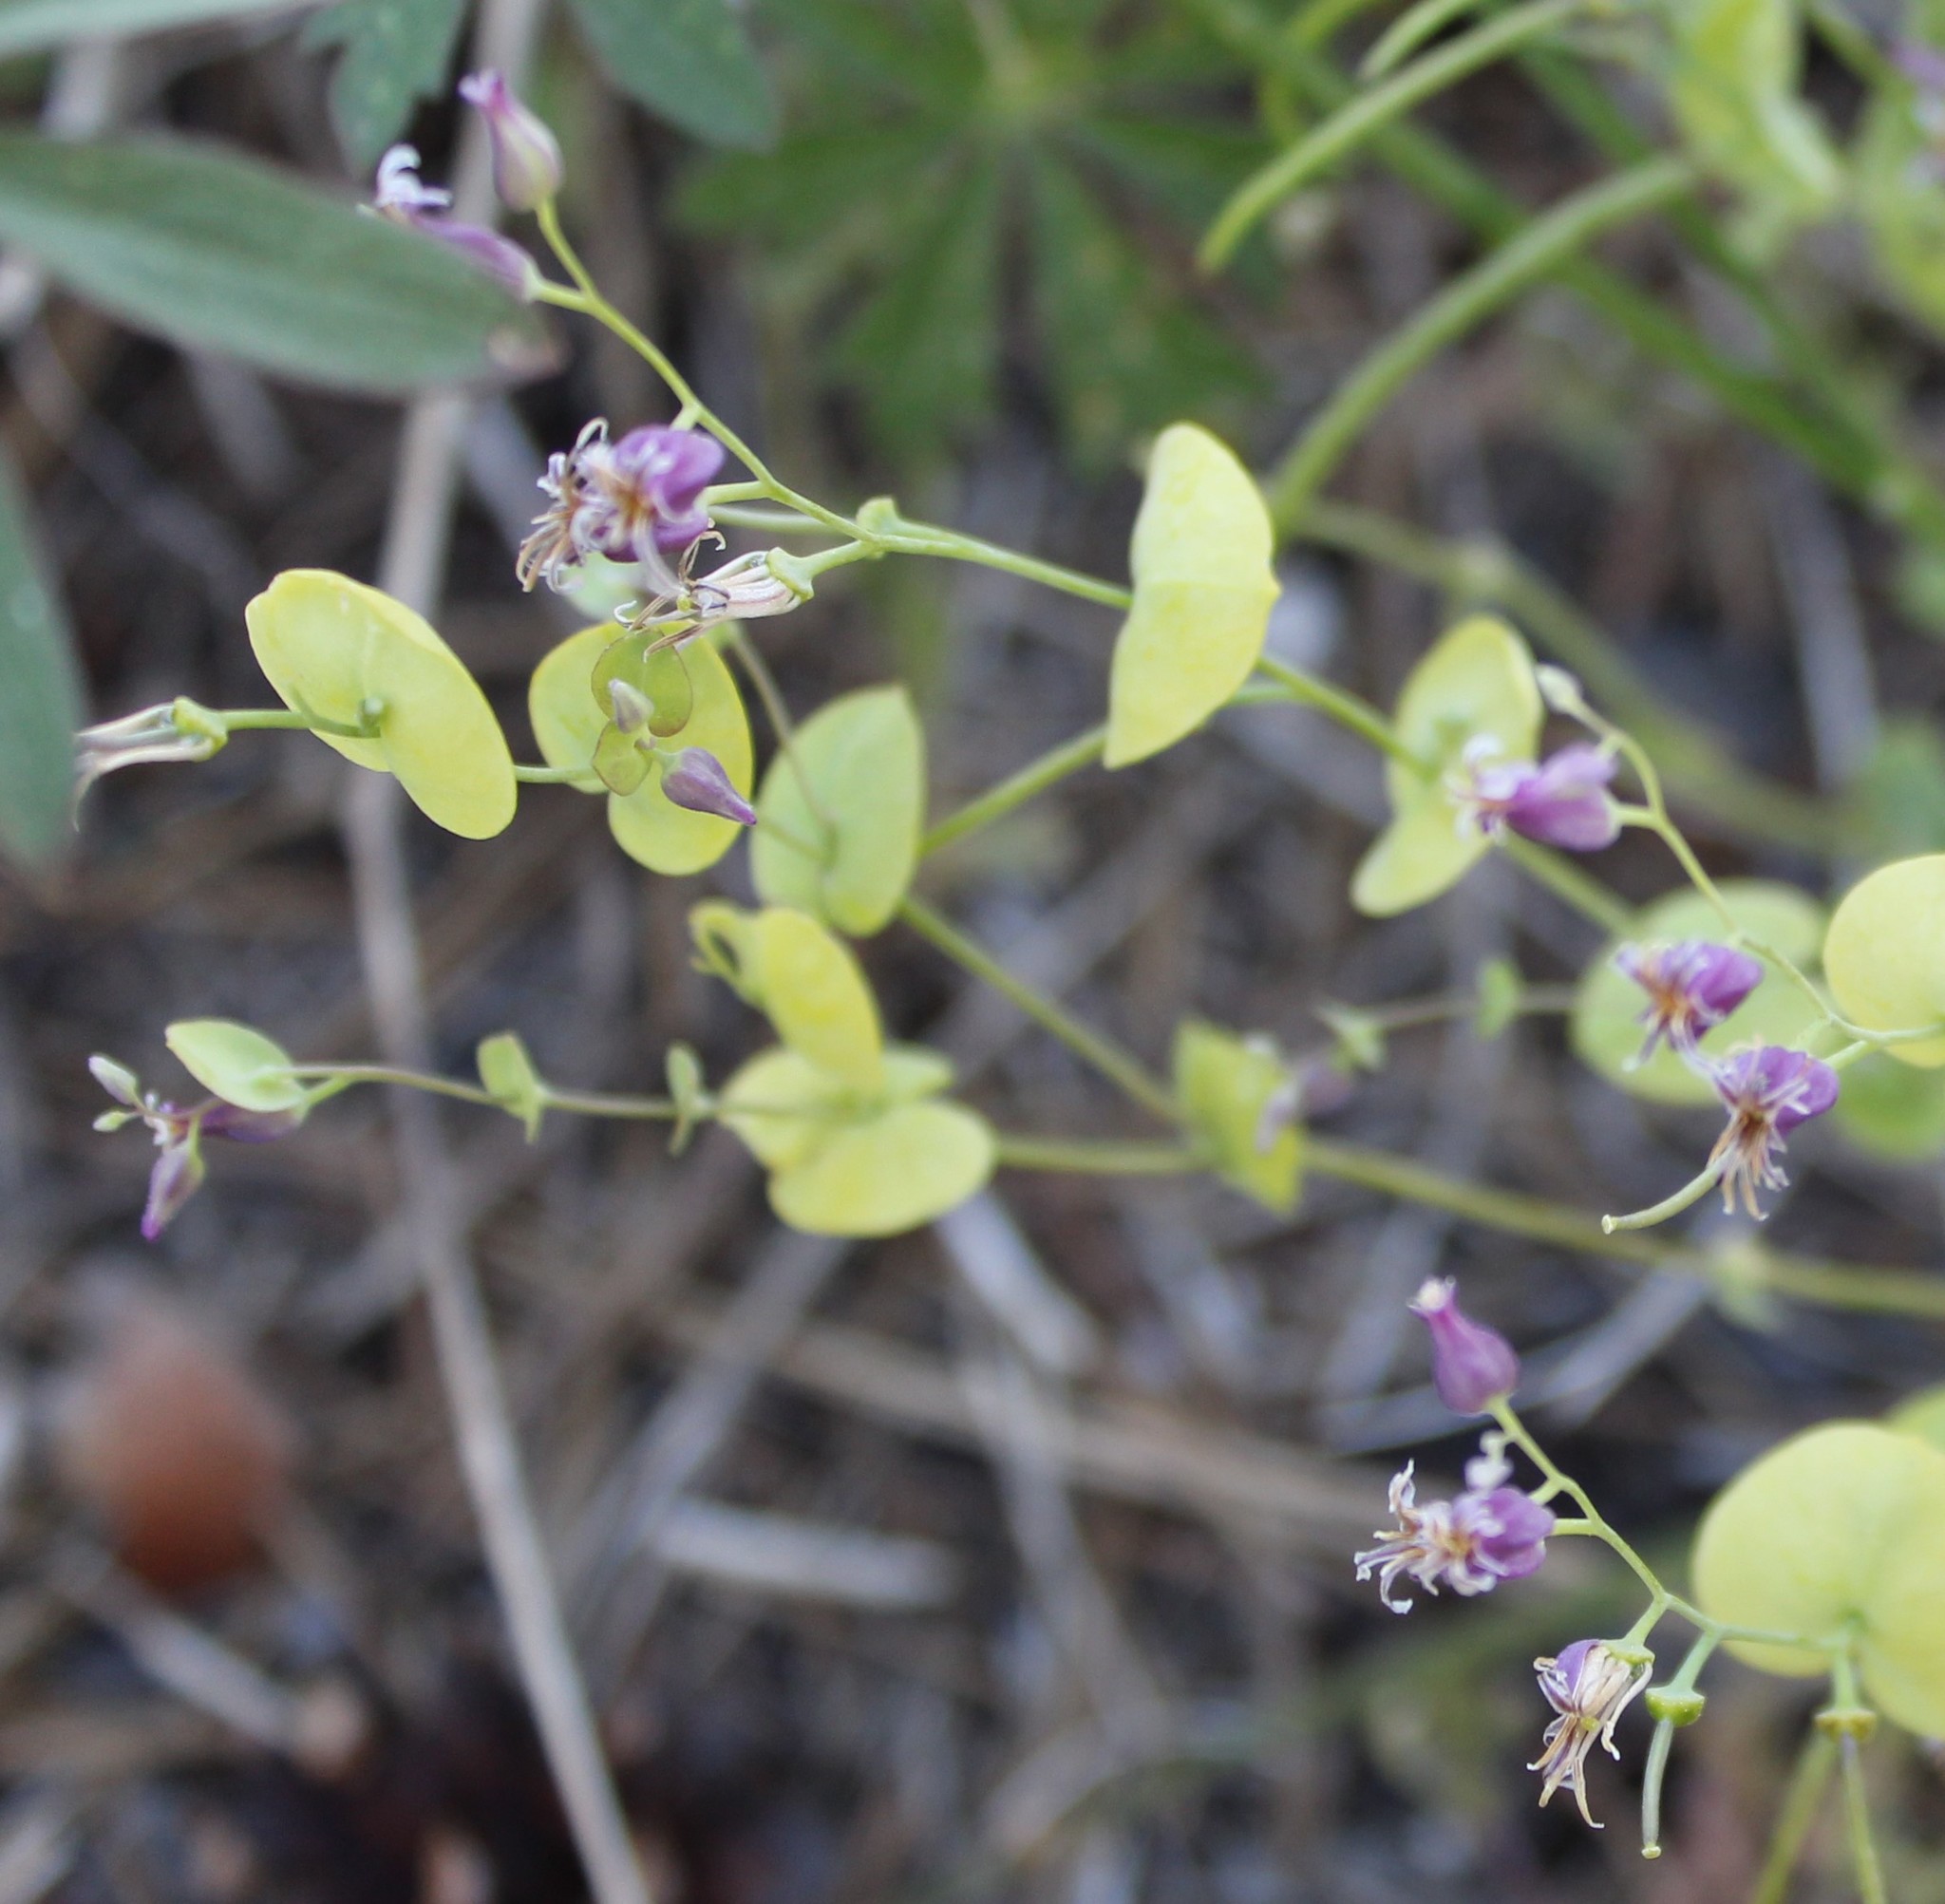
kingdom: Plantae
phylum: Tracheophyta
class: Magnoliopsida
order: Brassicales
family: Brassicaceae
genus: Streptanthus
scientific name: Streptanthus tortuosus
